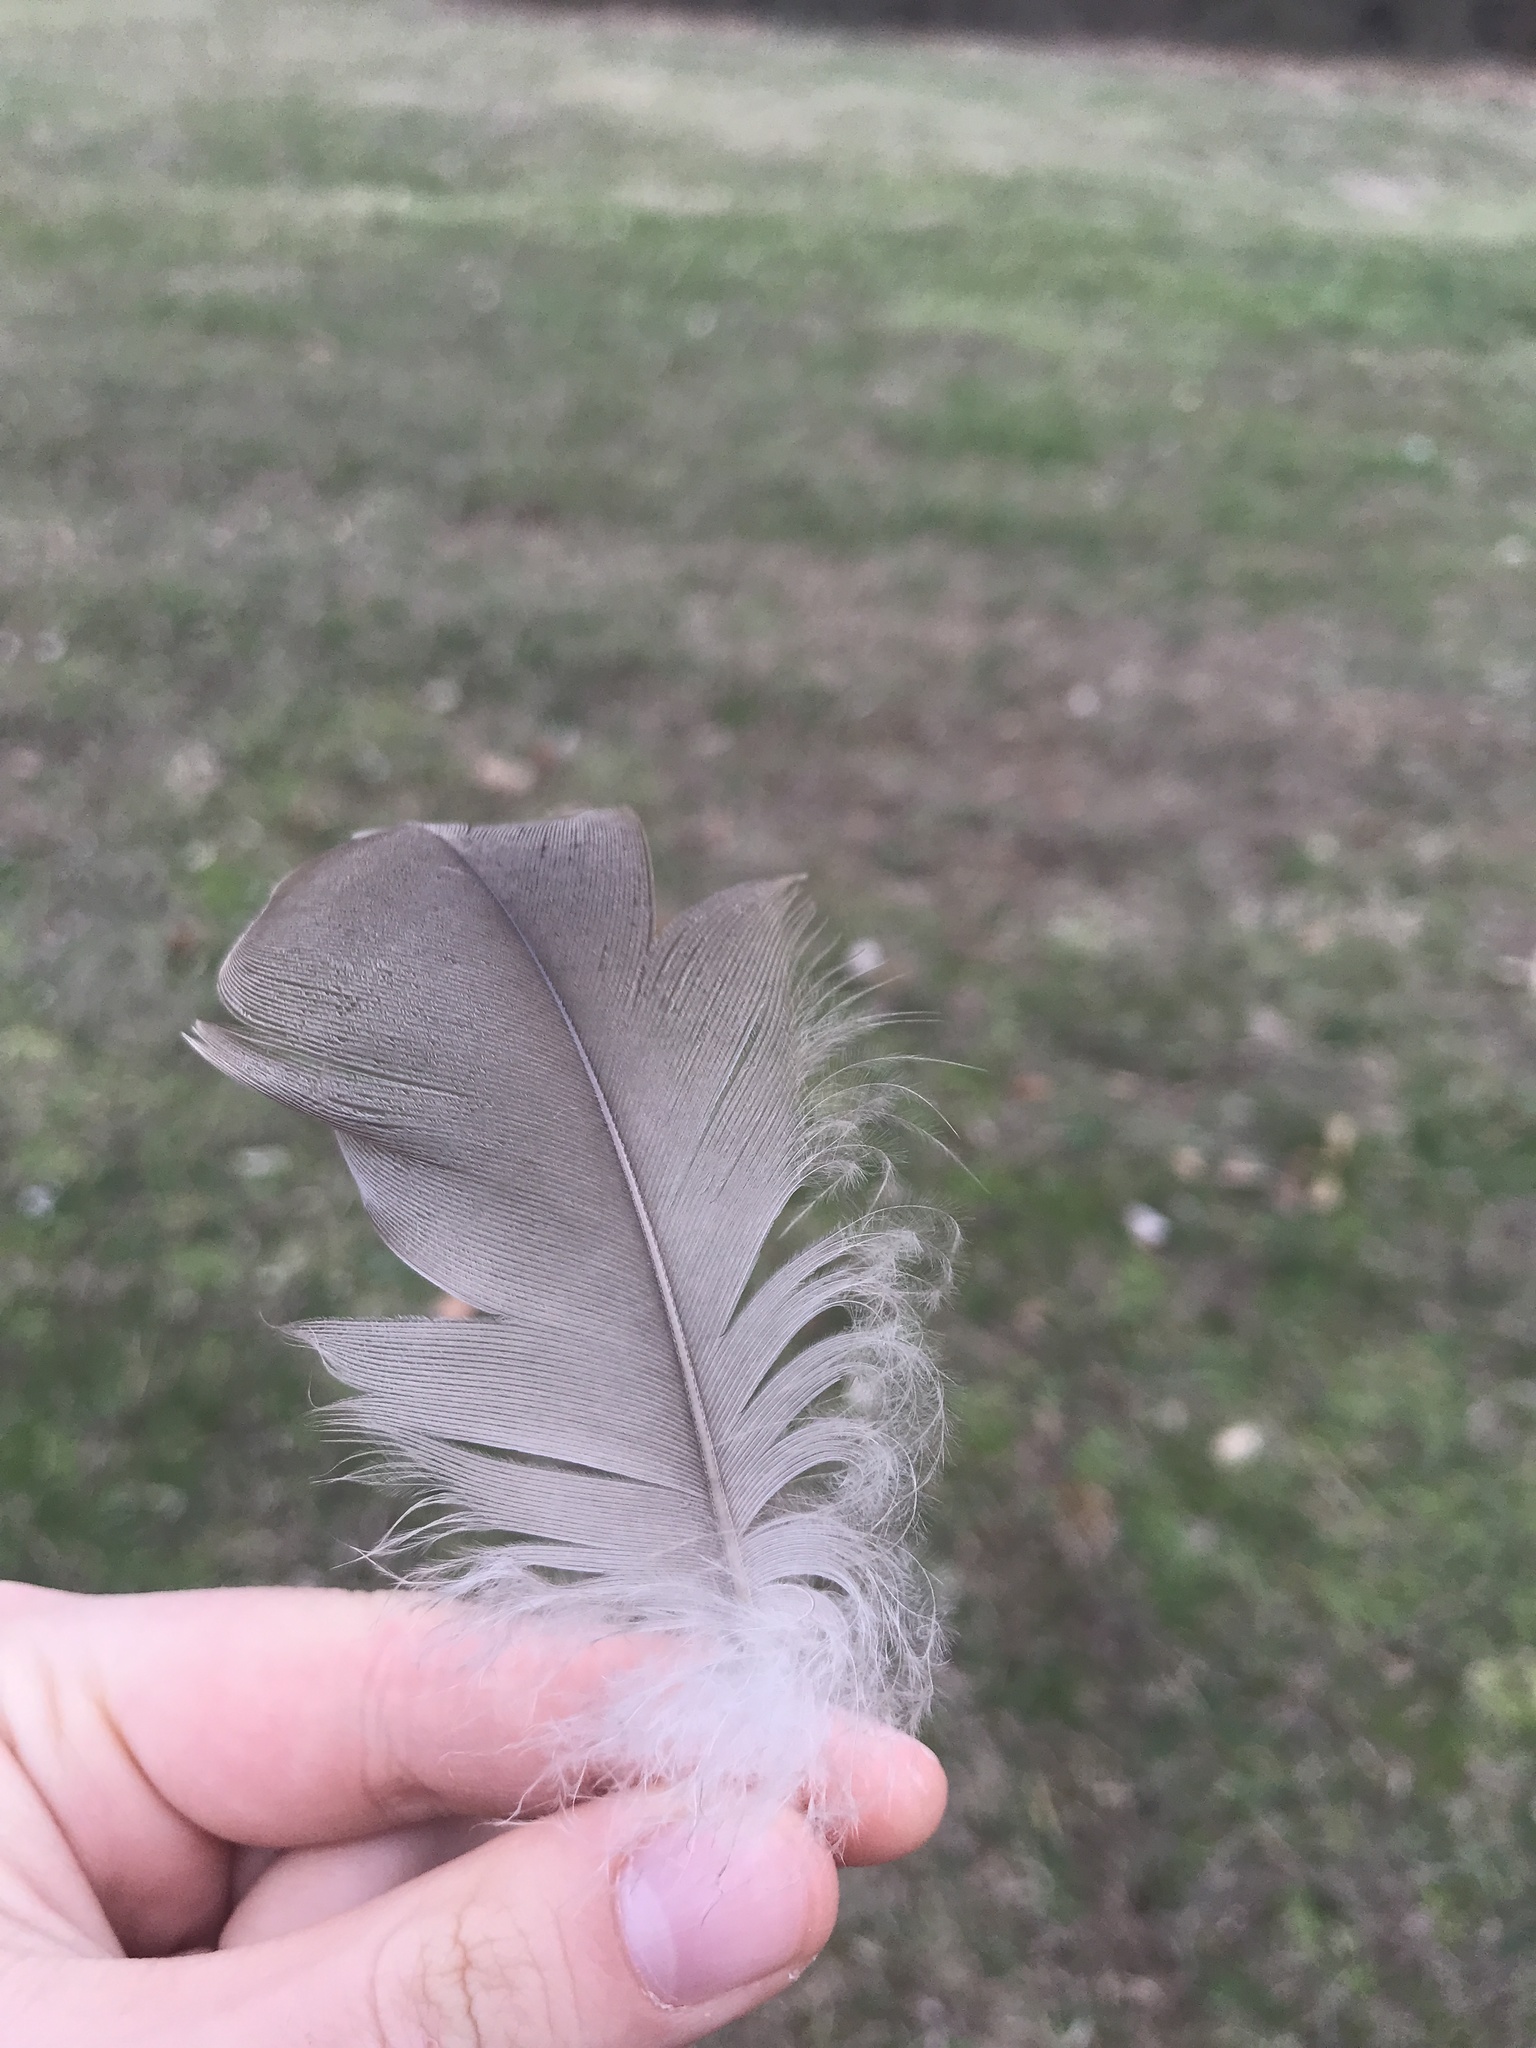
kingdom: Animalia
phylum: Chordata
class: Aves
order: Anseriformes
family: Anatidae
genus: Branta
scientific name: Branta canadensis
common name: Canada goose
